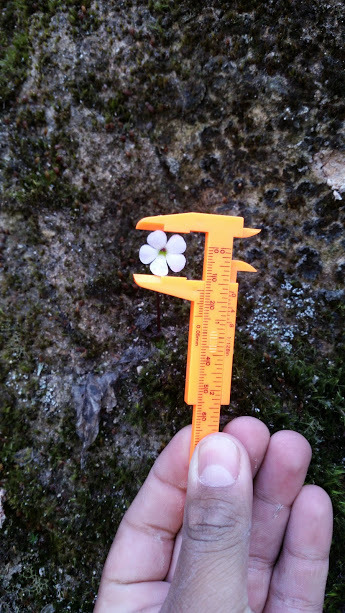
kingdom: Plantae
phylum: Tracheophyta
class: Magnoliopsida
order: Lamiales
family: Lentibulariaceae
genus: Pinguicula
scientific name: Pinguicula acuminata
